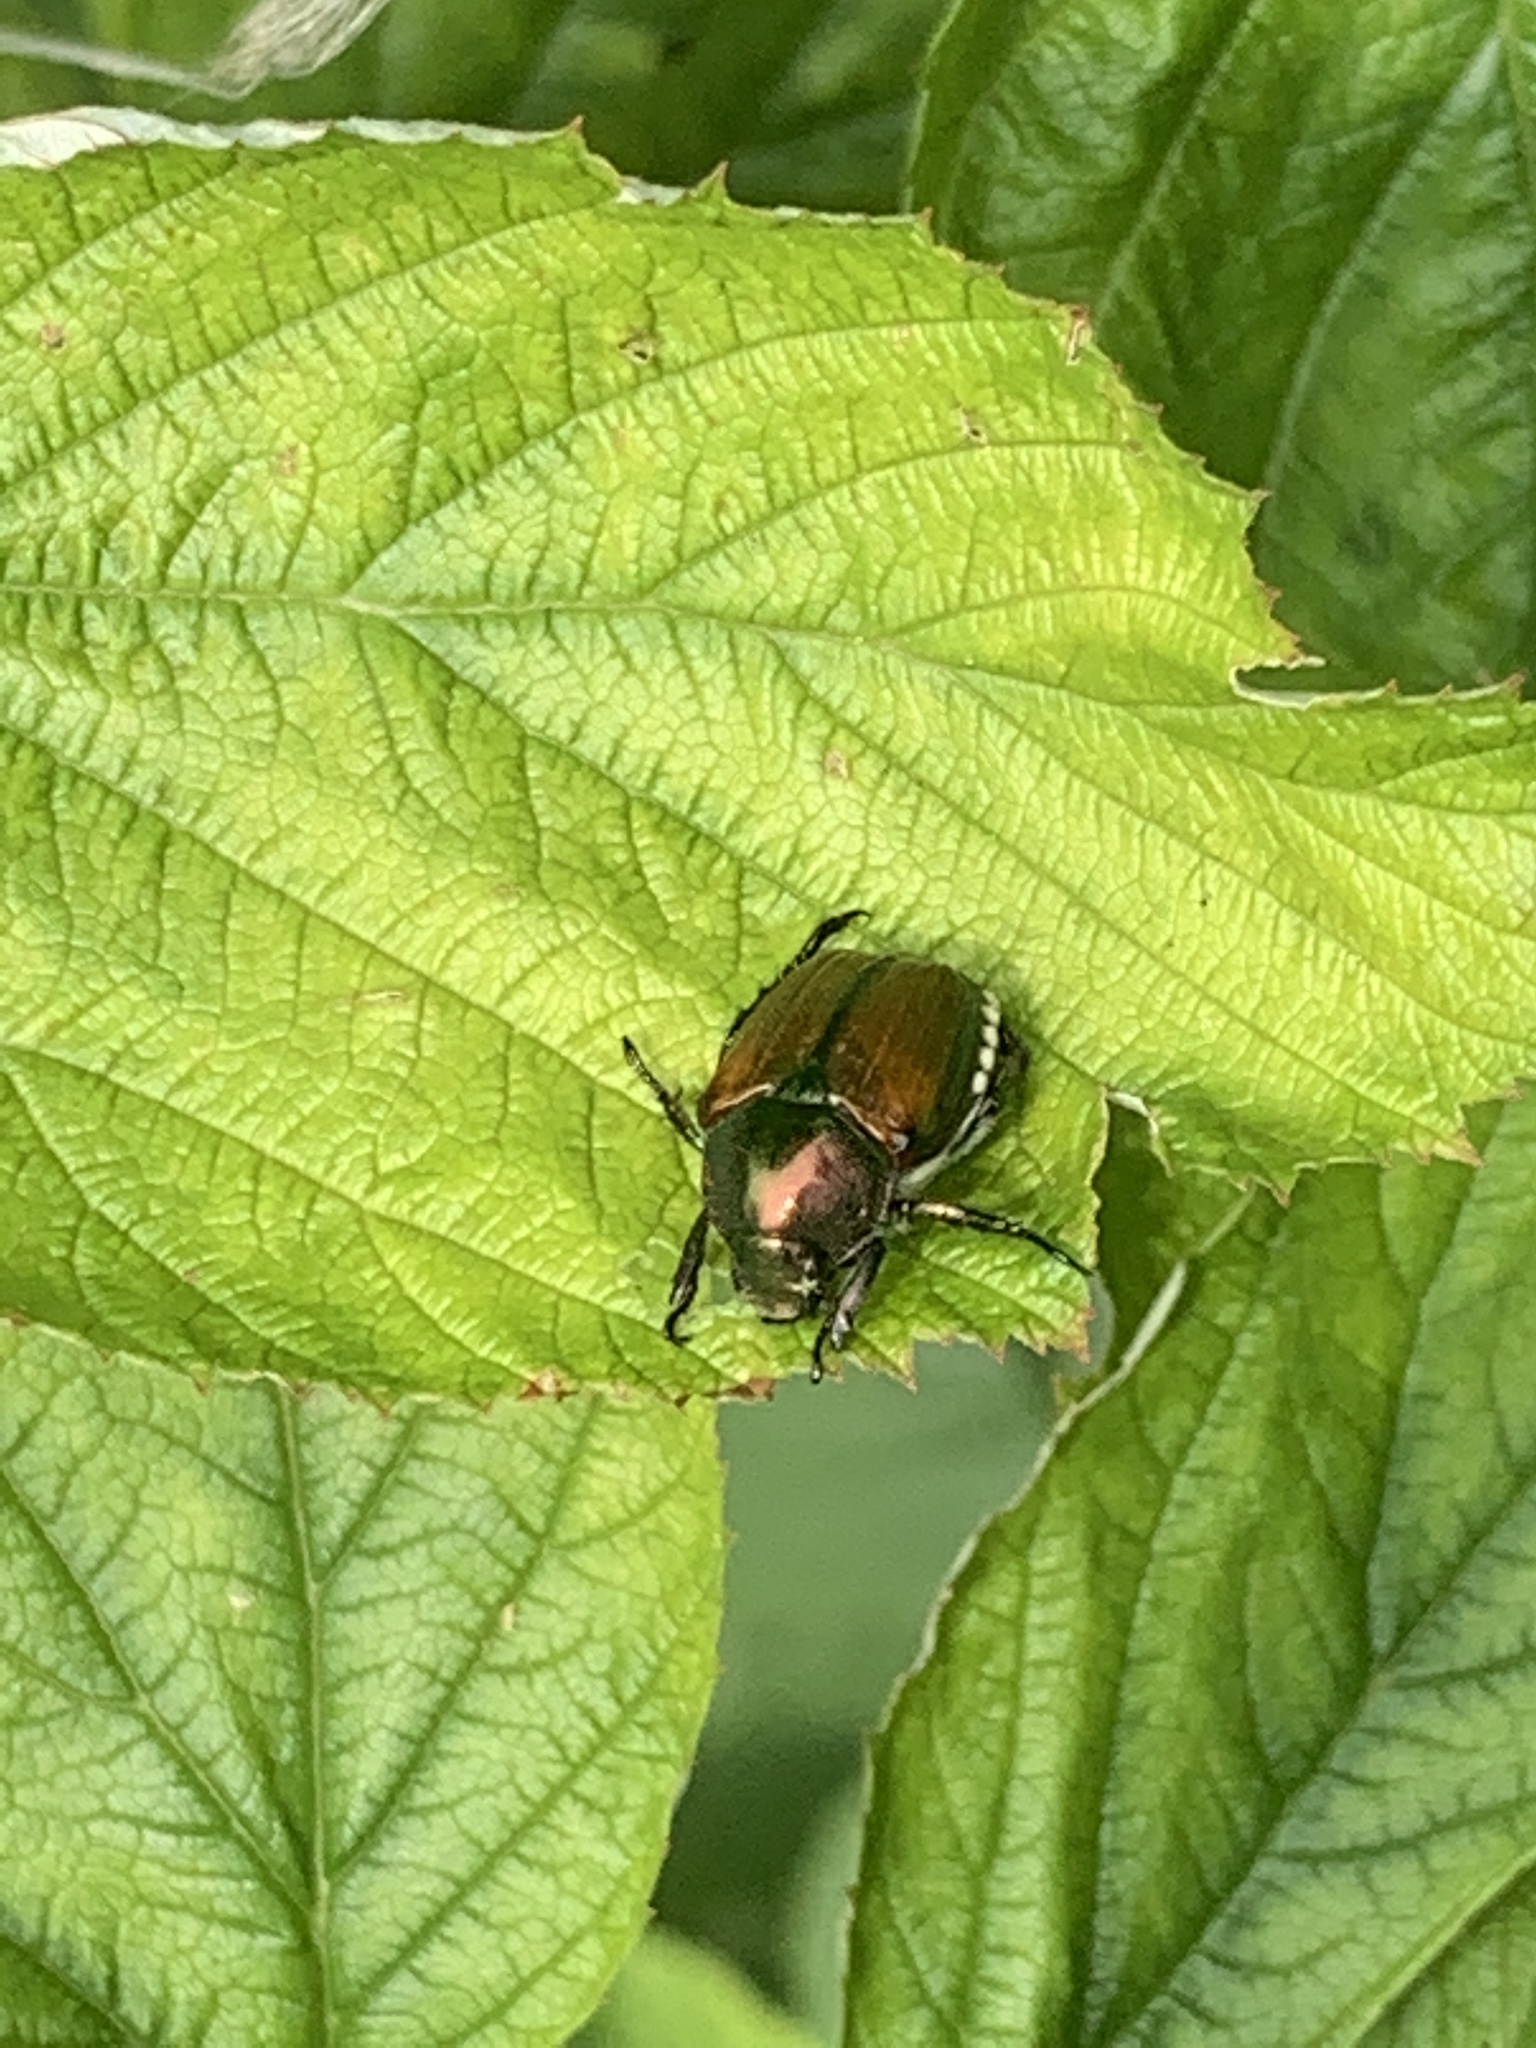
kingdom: Animalia
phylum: Arthropoda
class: Insecta
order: Coleoptera
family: Scarabaeidae
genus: Popillia
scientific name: Popillia japonica
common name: Japanese beetle
